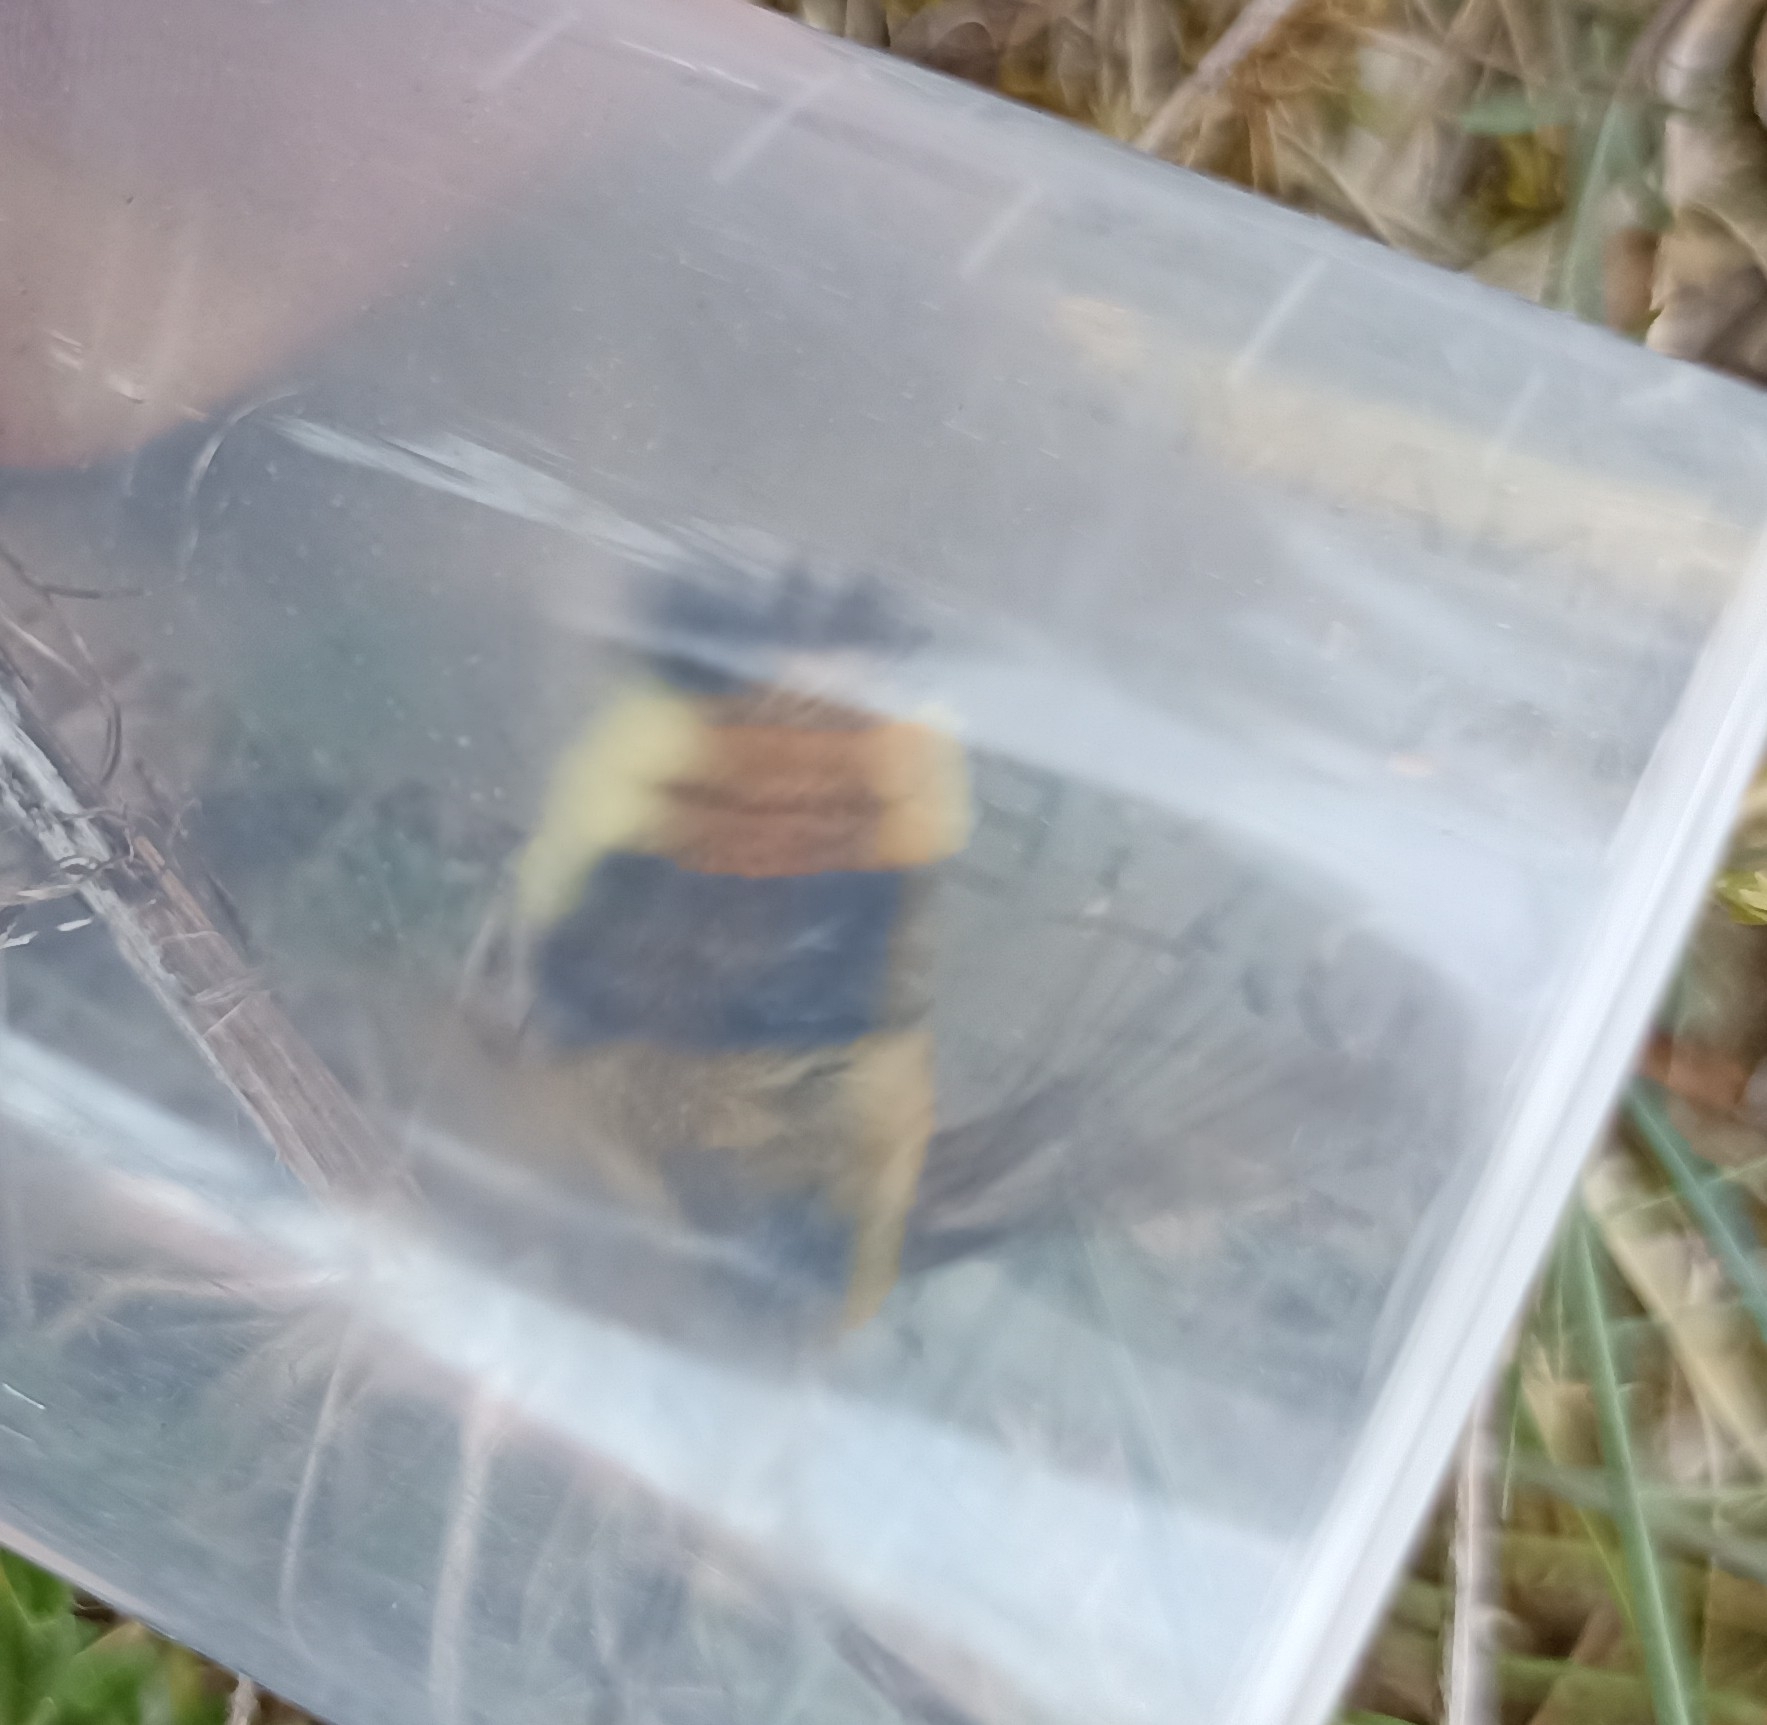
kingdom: Animalia
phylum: Arthropoda
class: Insecta
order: Lepidoptera
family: Sphingidae
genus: Hemaris
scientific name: Hemaris tityus
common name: Narrow-bordered bee hawk-moth
